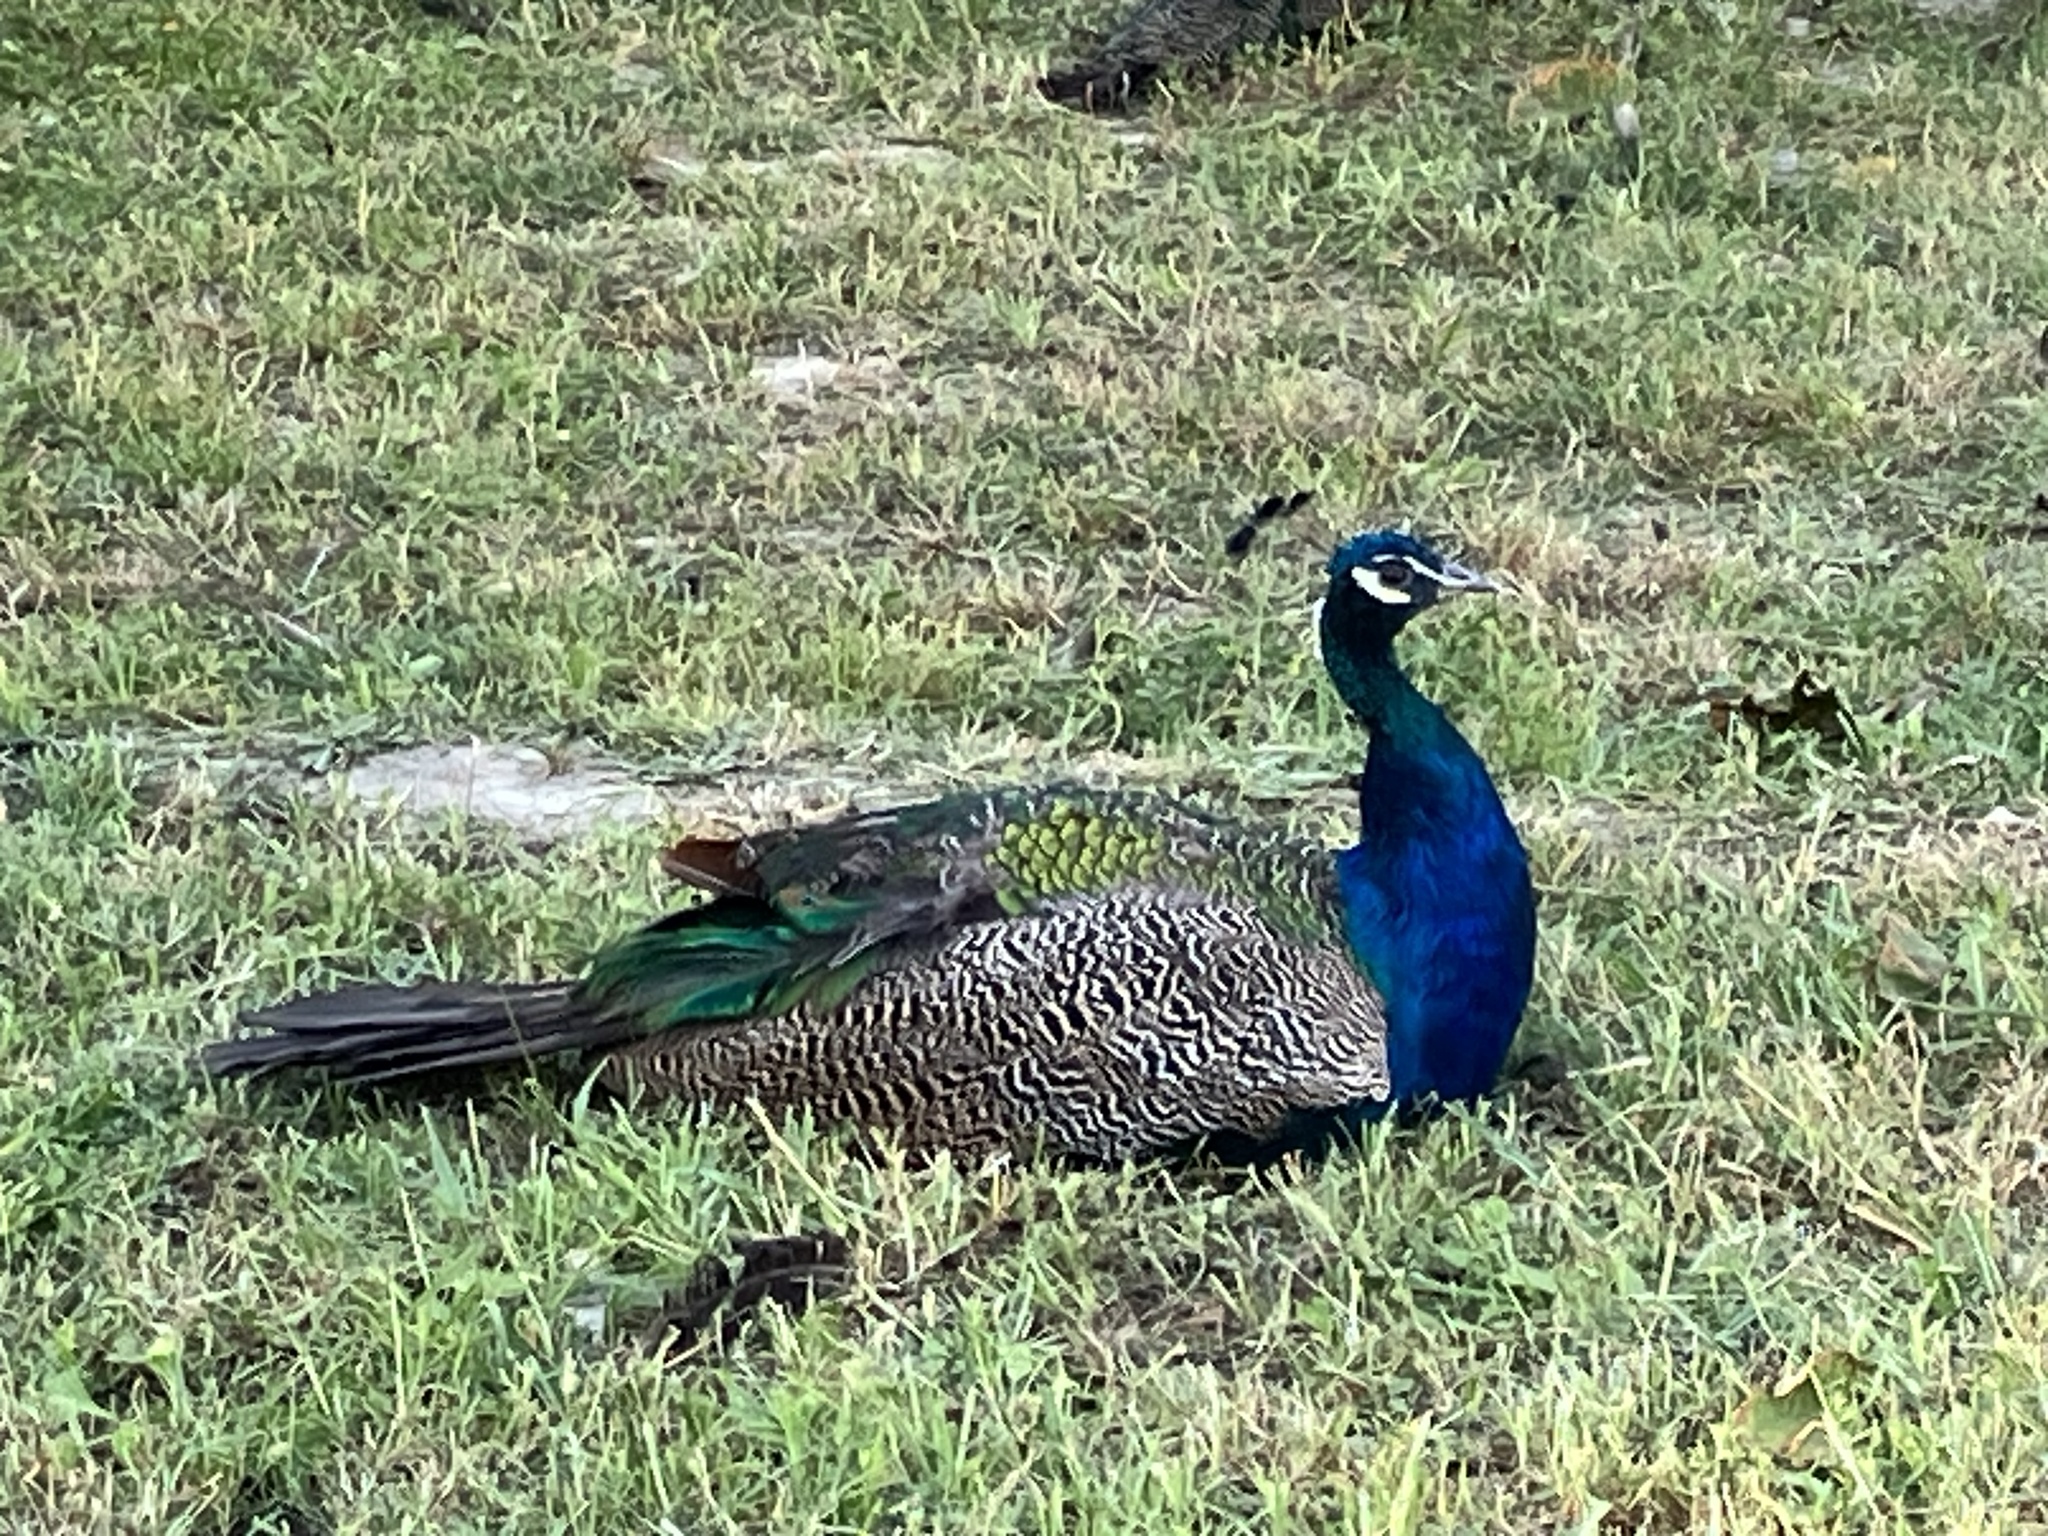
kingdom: Animalia
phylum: Chordata
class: Aves
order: Galliformes
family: Phasianidae
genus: Pavo
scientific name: Pavo cristatus
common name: Indian peafowl
